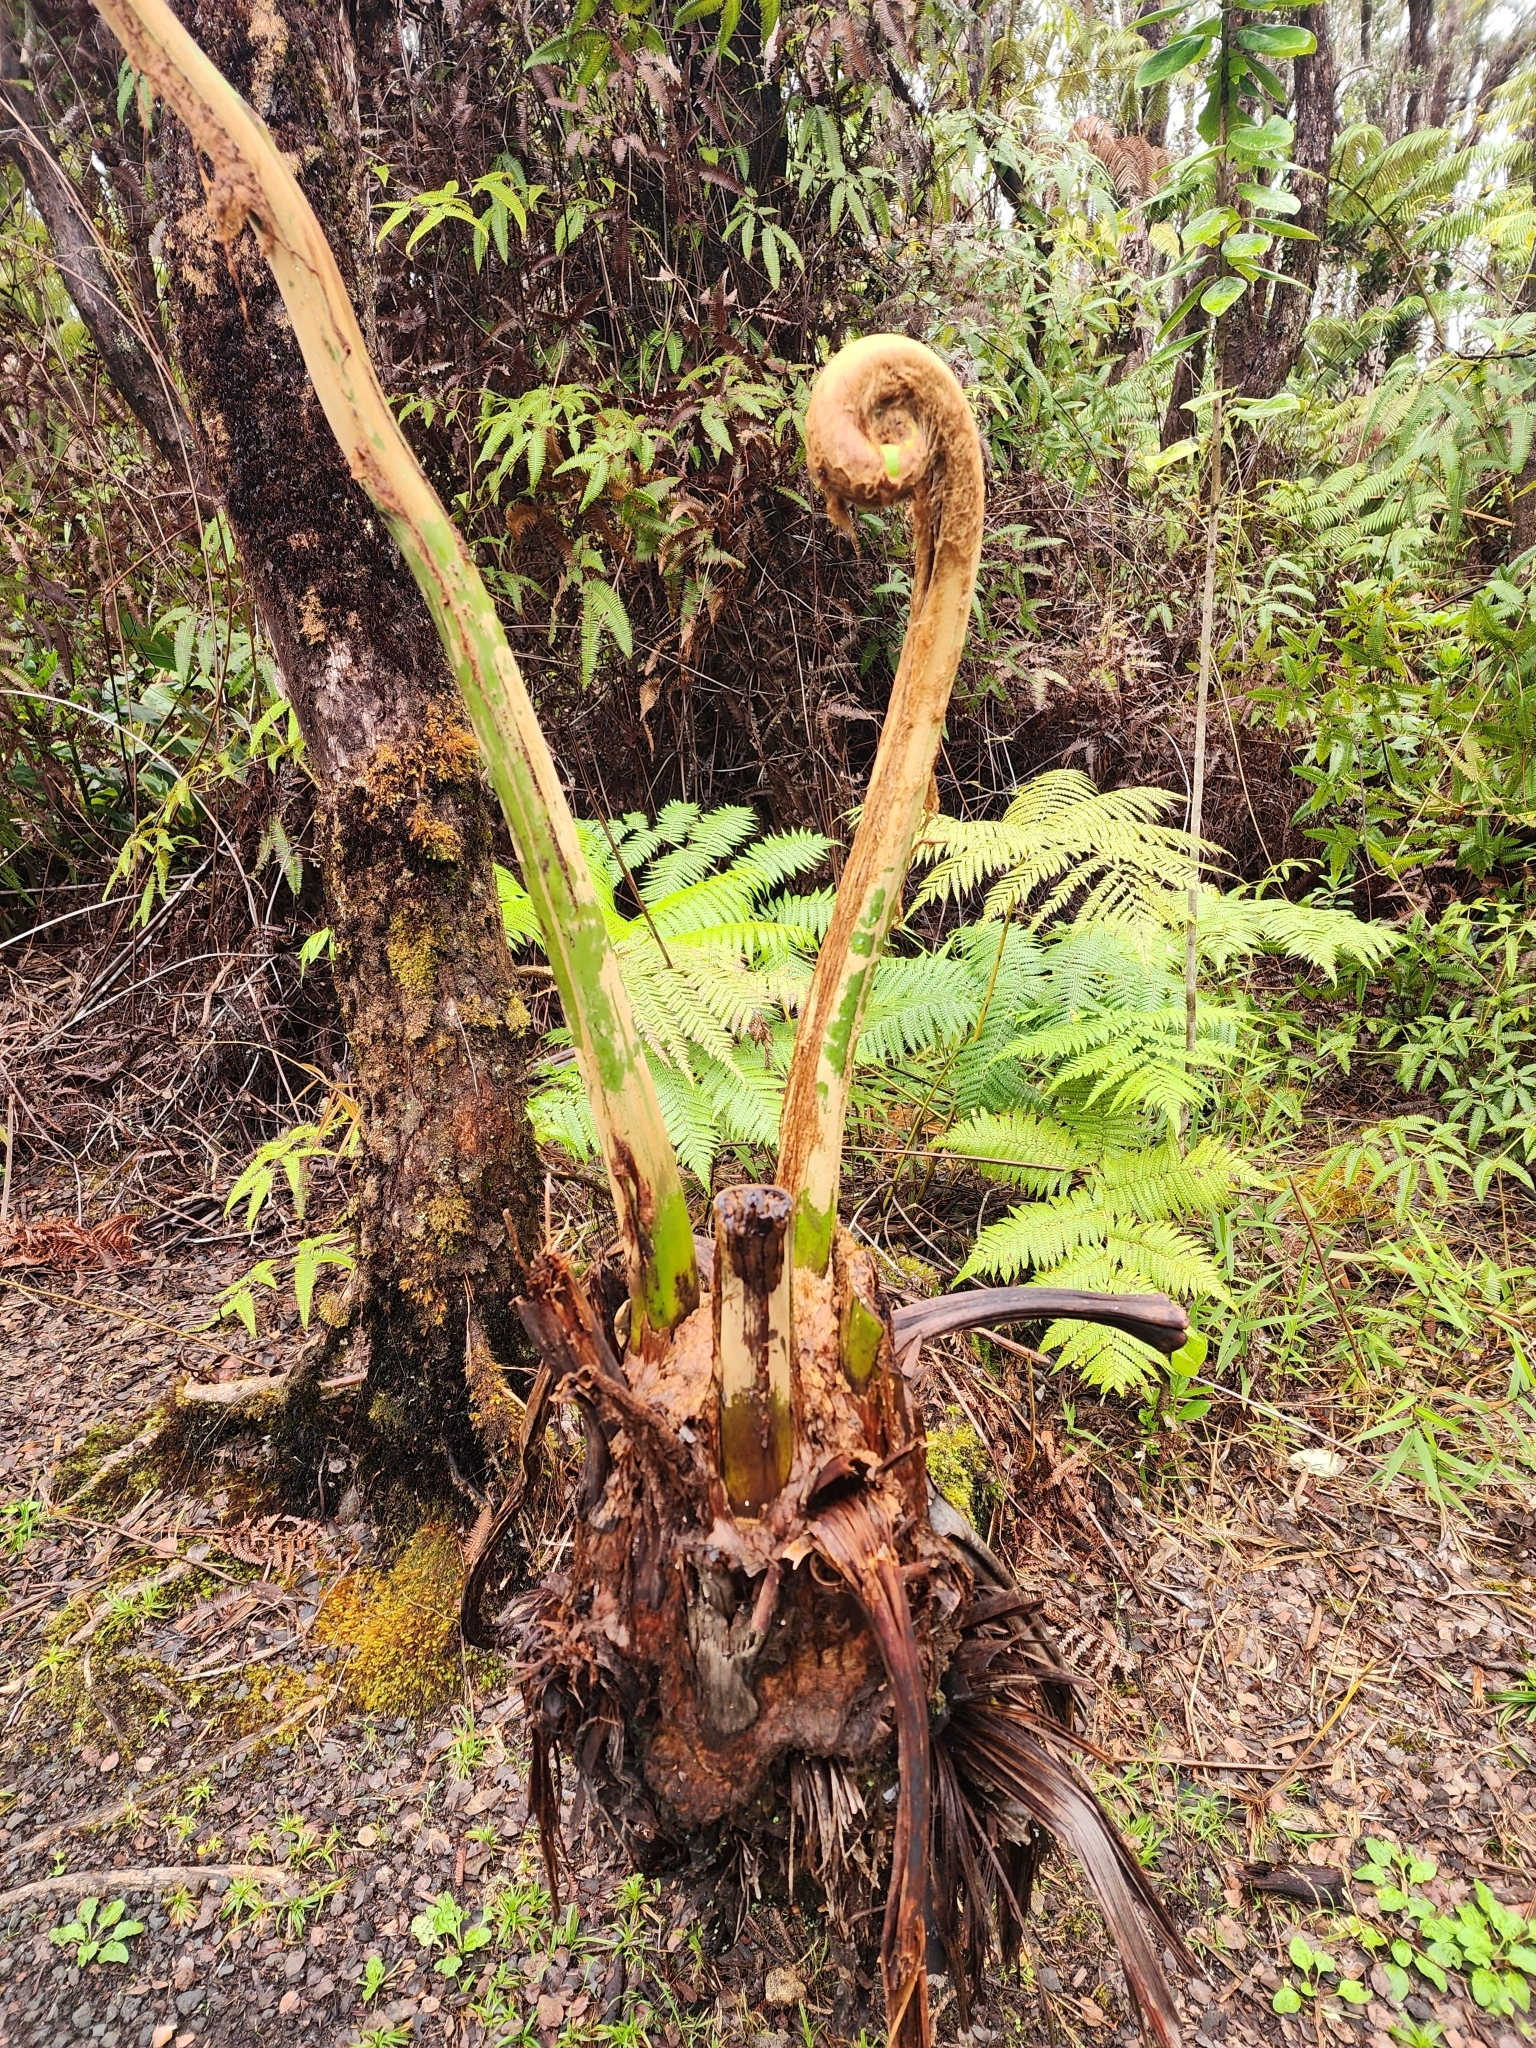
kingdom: Plantae
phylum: Tracheophyta
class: Polypodiopsida
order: Cyatheales
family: Cibotiaceae
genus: Cibotium
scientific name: Cibotium glaucum
